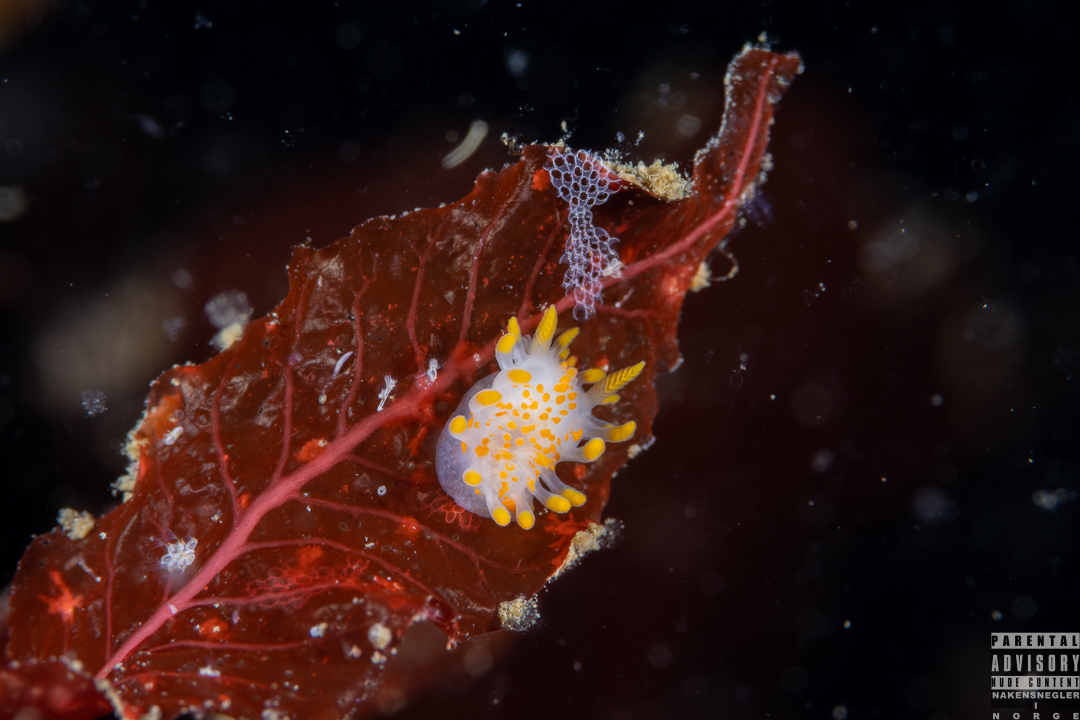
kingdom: Animalia
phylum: Mollusca
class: Gastropoda
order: Nudibranchia
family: Polyceridae
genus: Limacia
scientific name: Limacia clavigera
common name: Orange-clubbed sea slug
